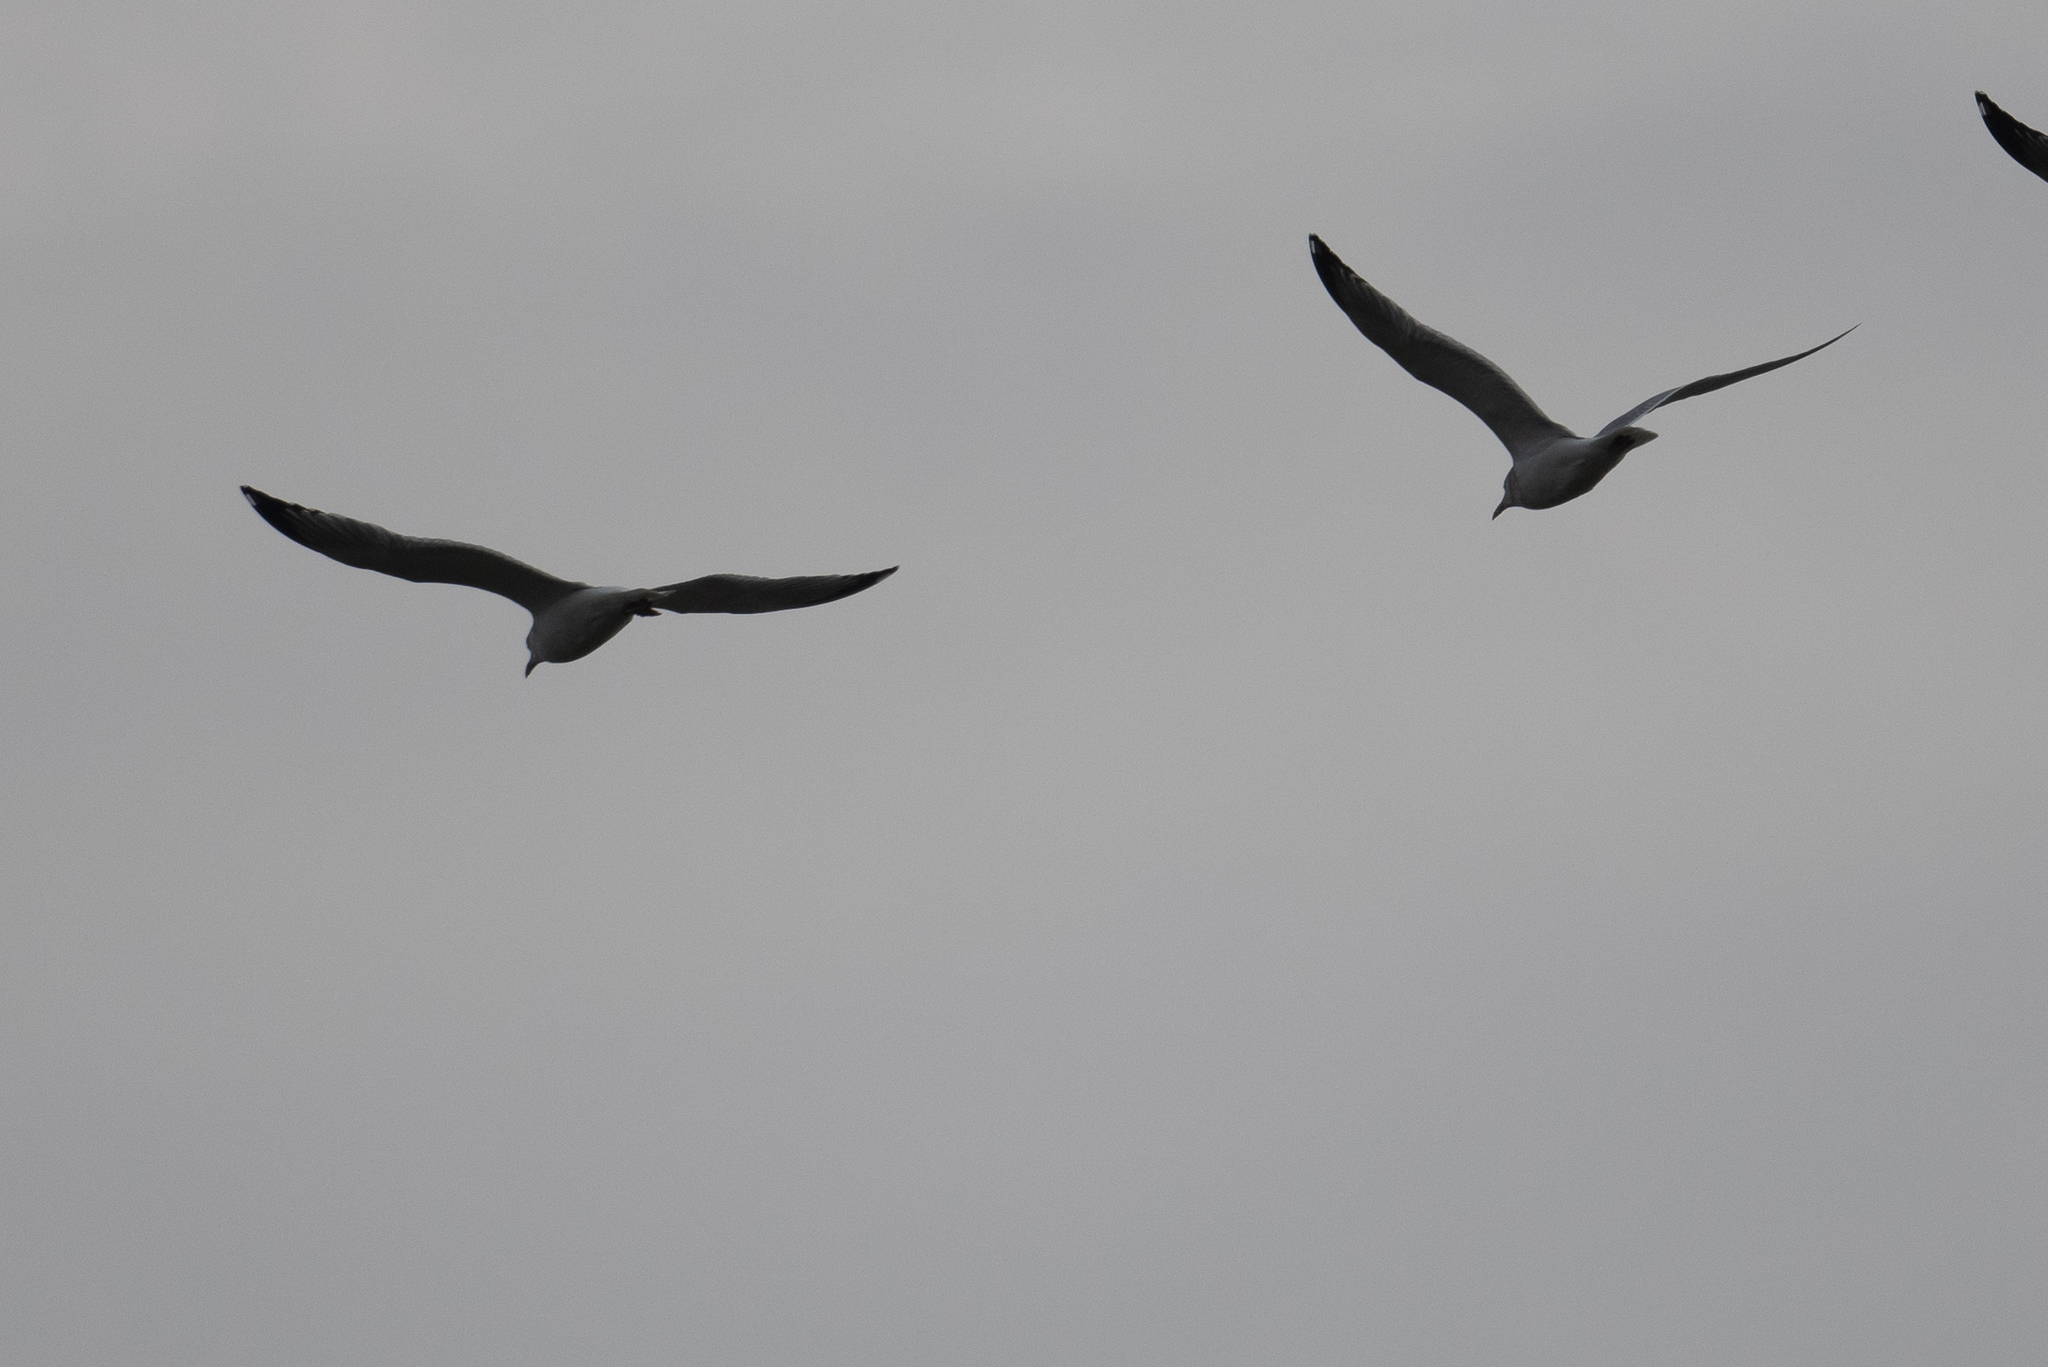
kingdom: Animalia
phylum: Chordata
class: Aves
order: Charadriiformes
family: Laridae
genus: Larus
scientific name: Larus
